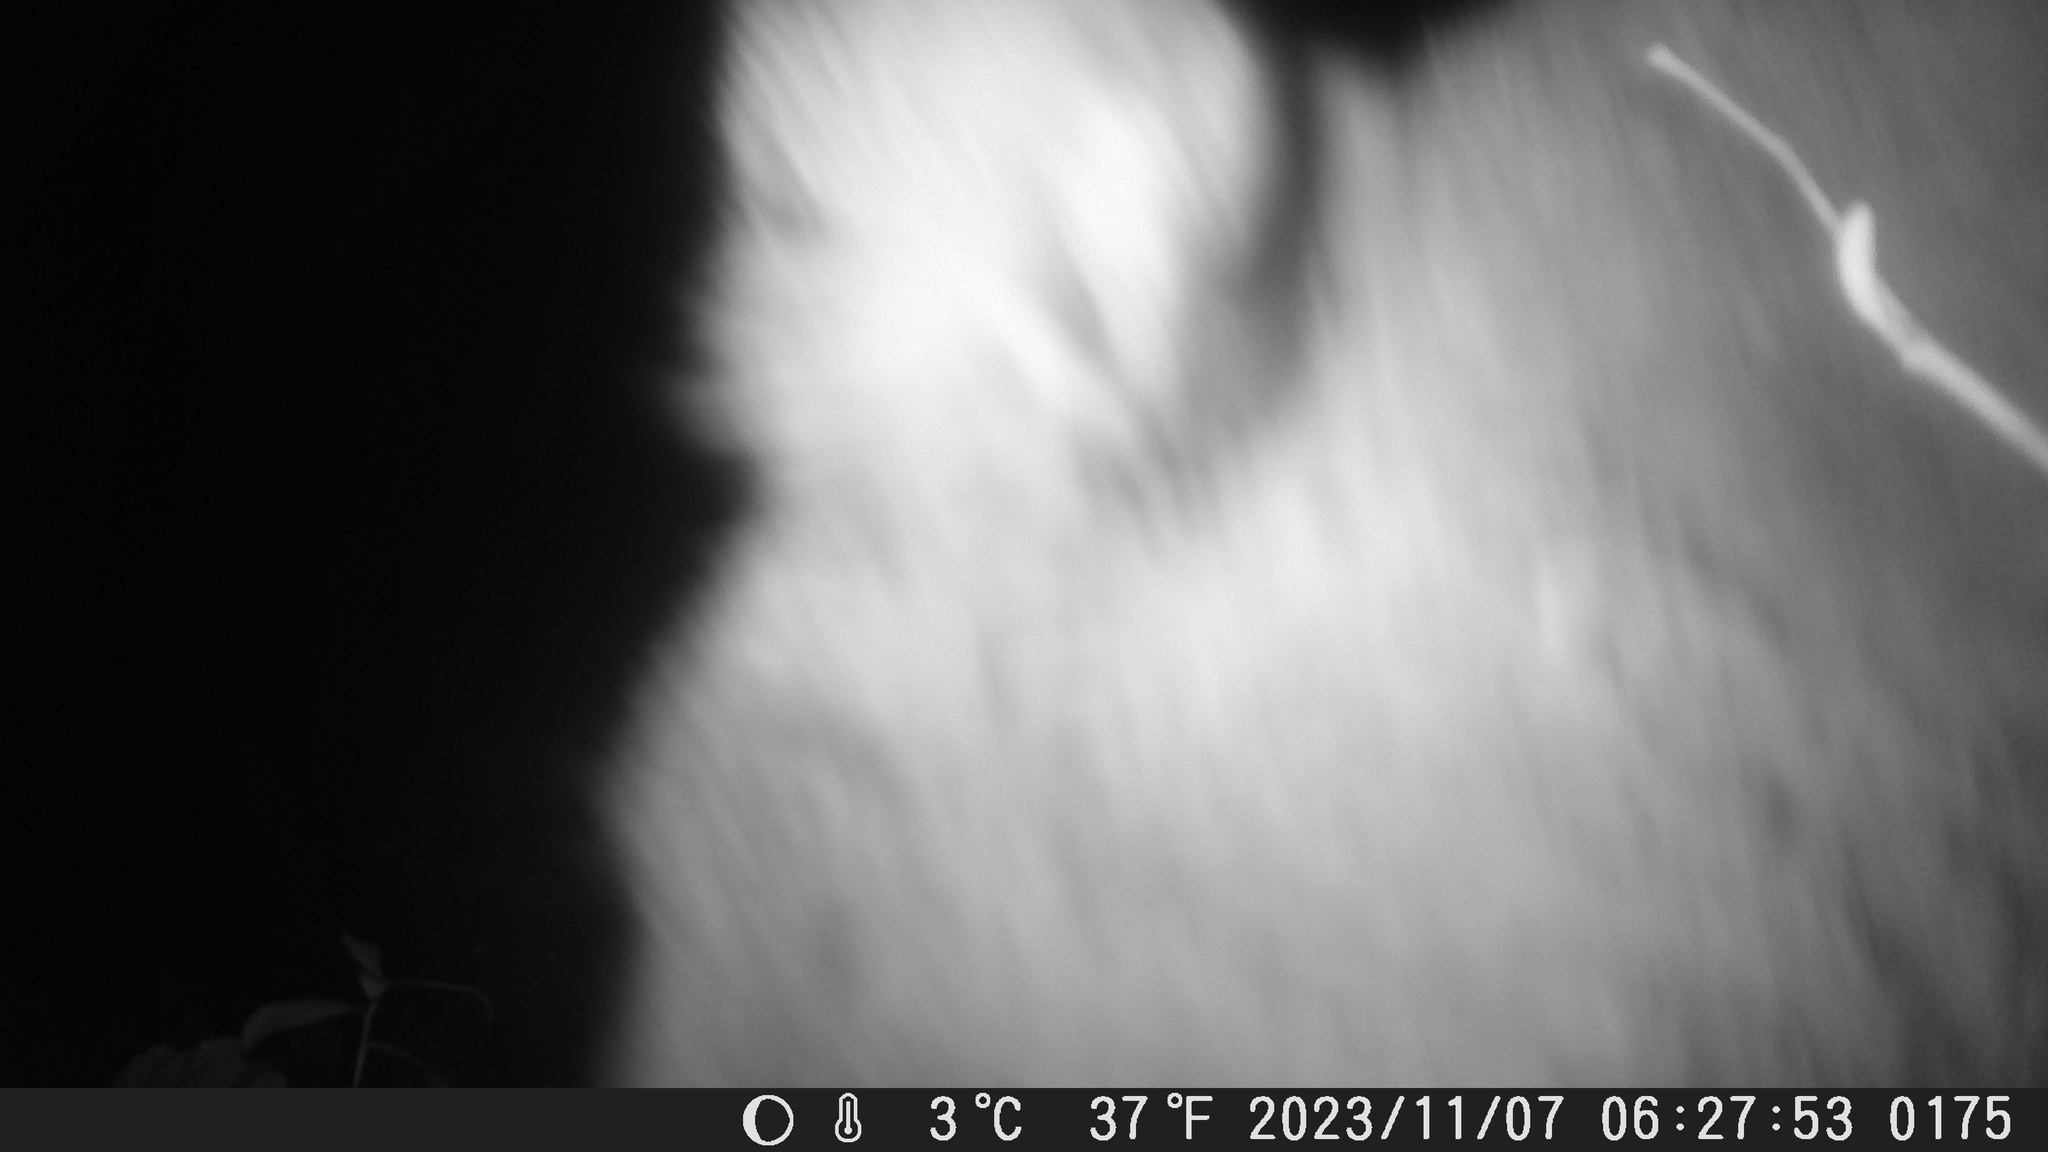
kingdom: Animalia
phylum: Chordata
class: Mammalia
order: Carnivora
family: Felidae
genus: Puma
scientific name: Puma concolor
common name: Puma
